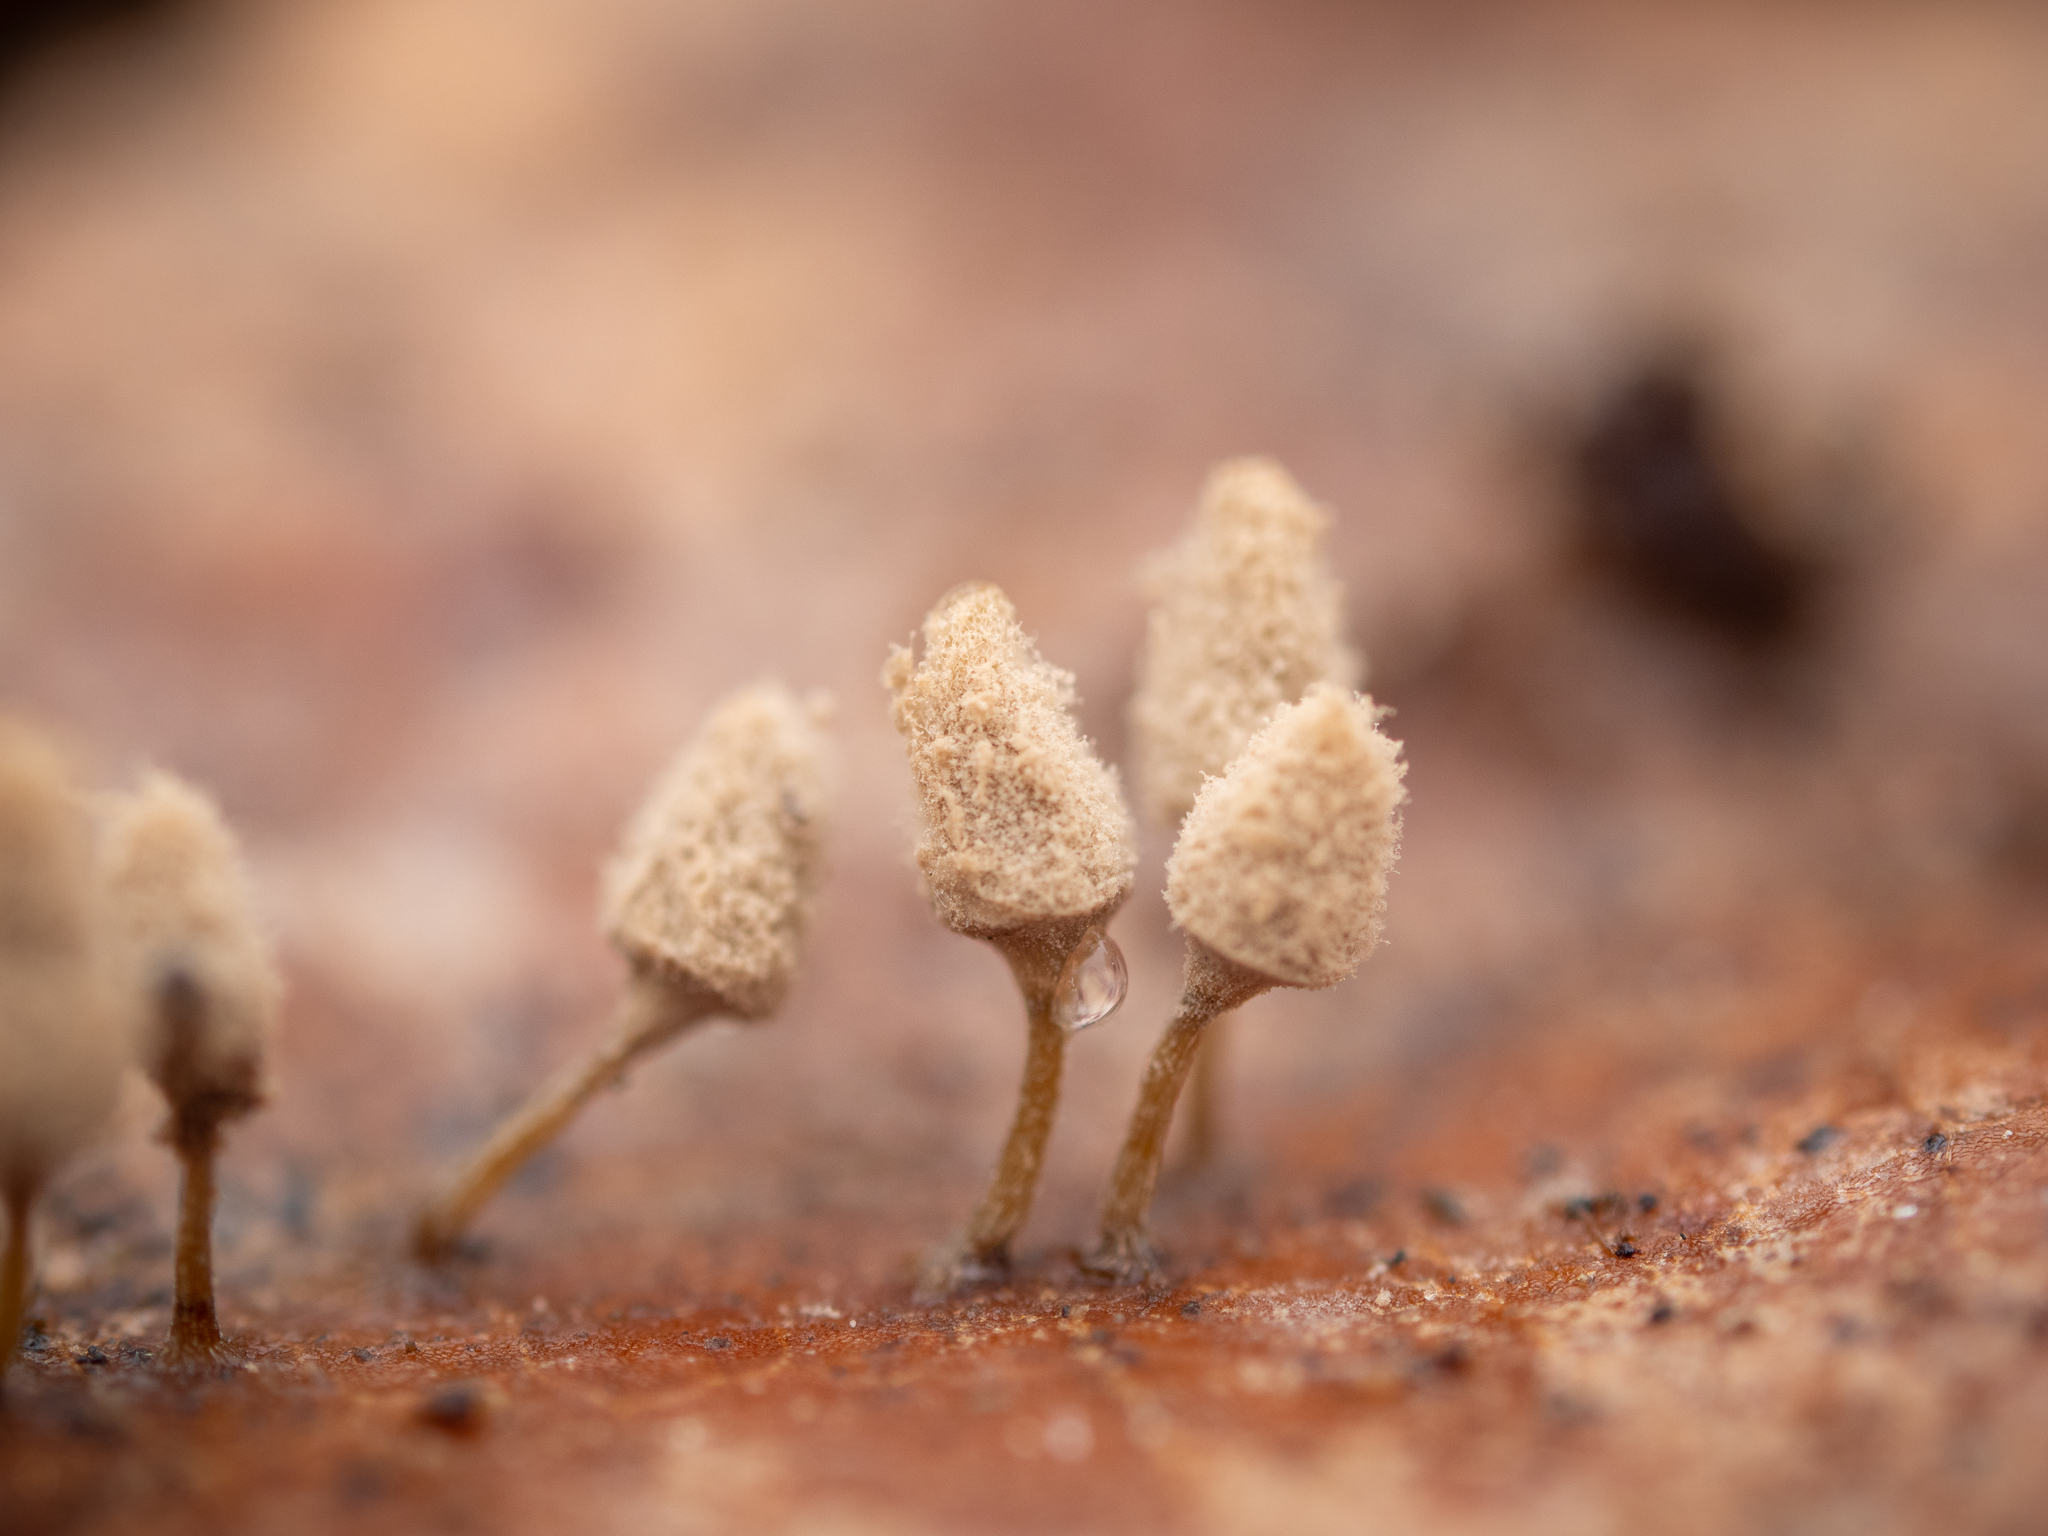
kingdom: Protozoa
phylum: Mycetozoa
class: Myxomycetes
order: Trichiales
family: Arcyriaceae
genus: Arcyria
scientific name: Arcyria cinerea
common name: White carnival candy slime mold
